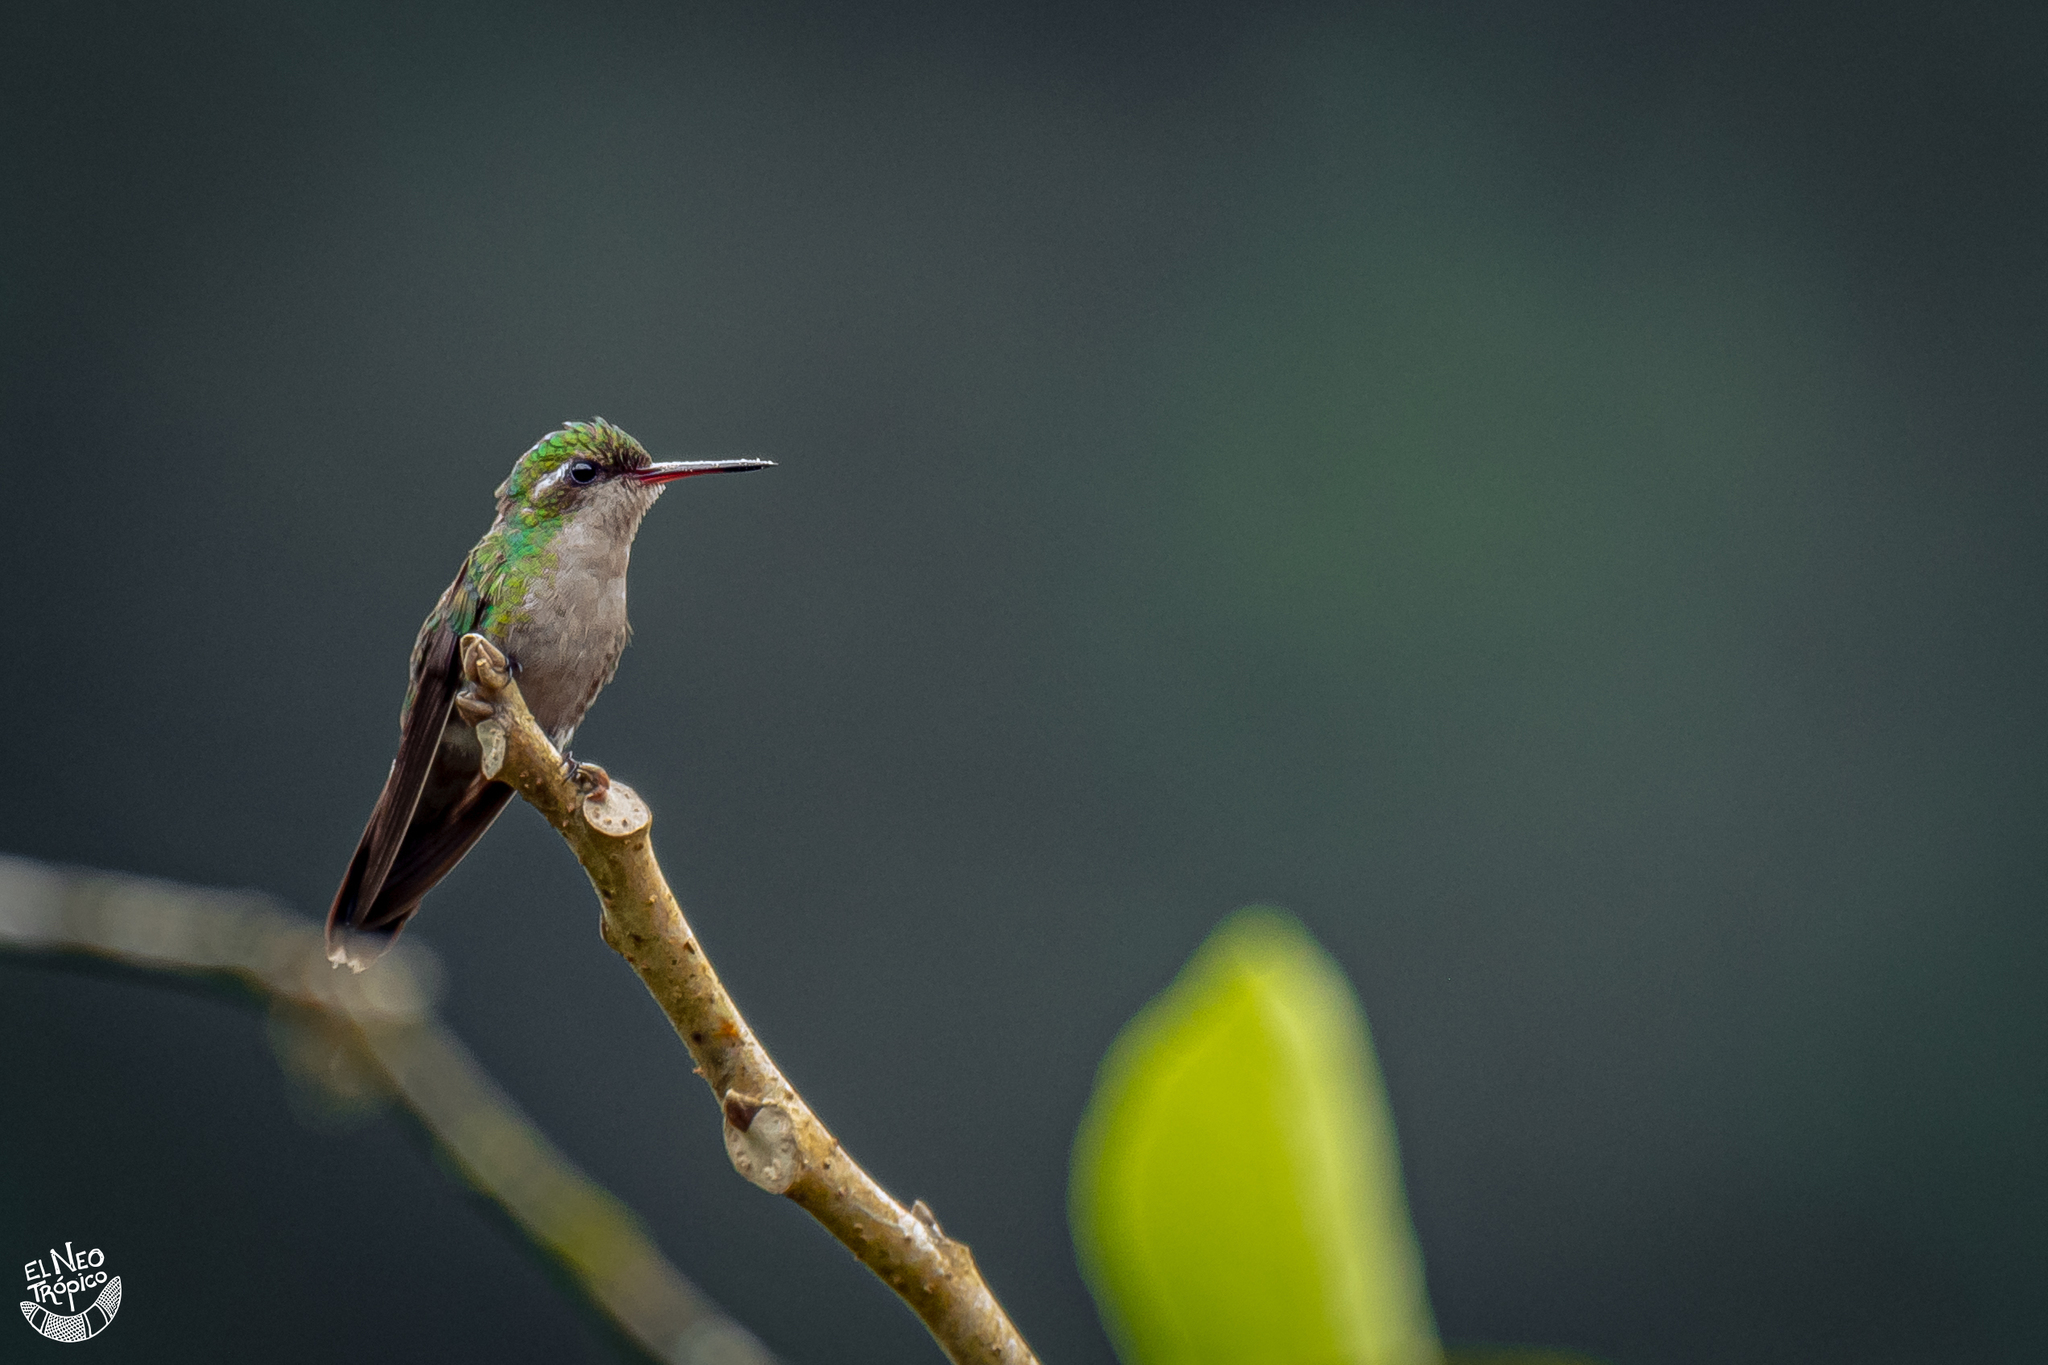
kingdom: Animalia
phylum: Chordata
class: Aves
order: Apodiformes
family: Trochilidae
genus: Cynanthus
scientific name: Cynanthus canivetii
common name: Canivet's emerald
